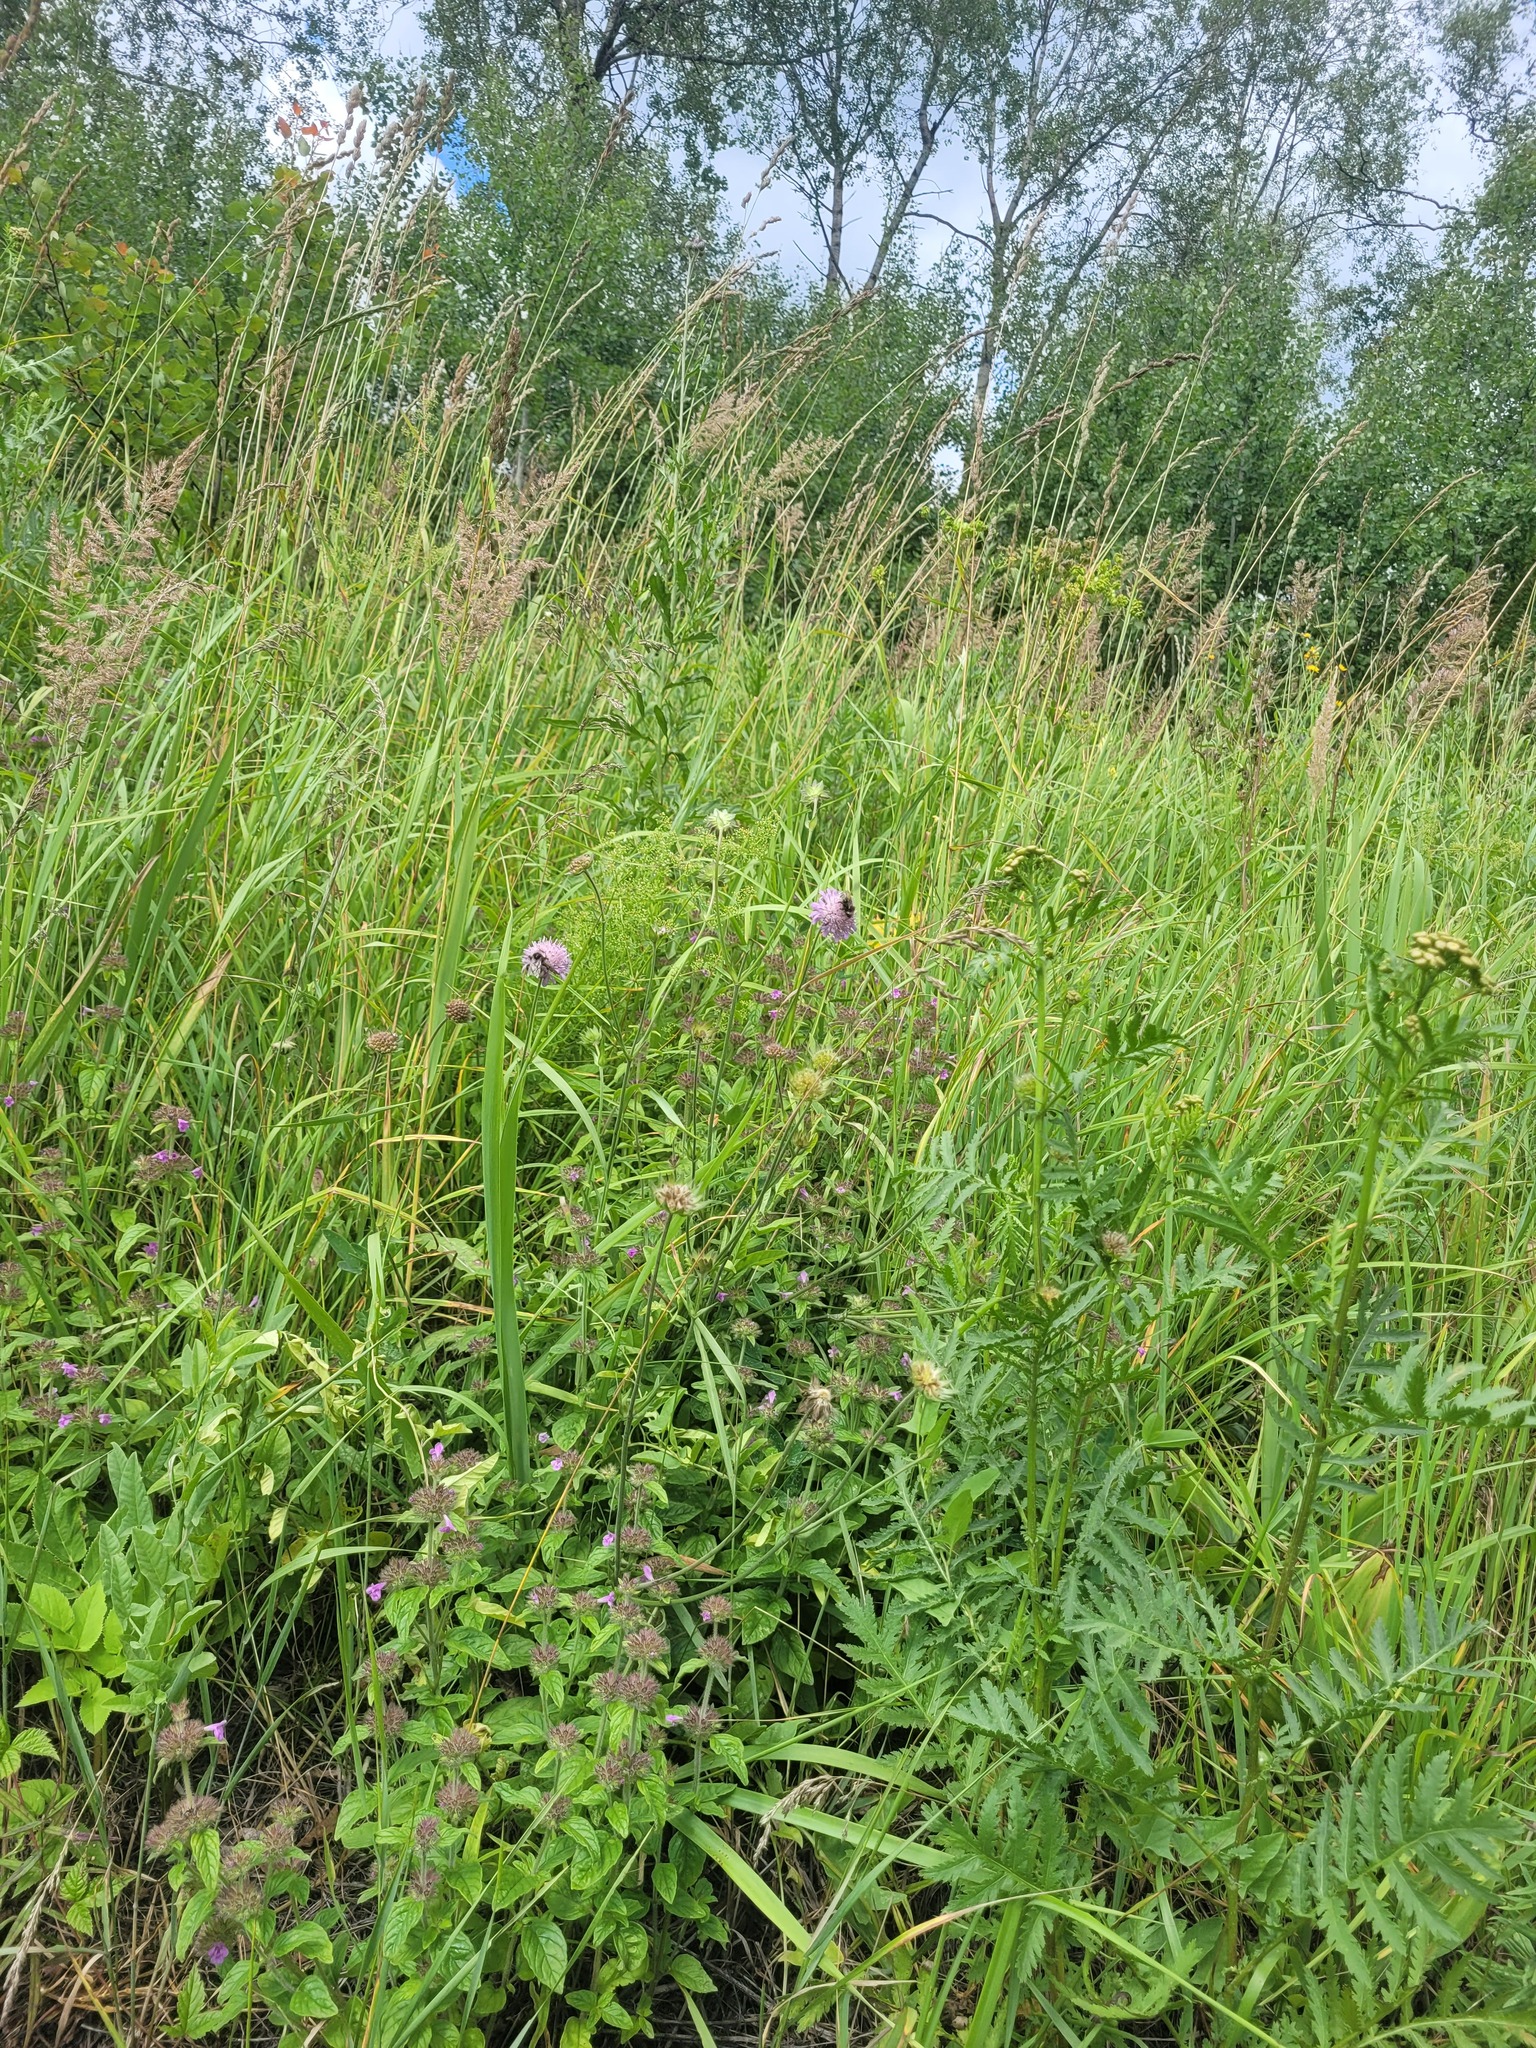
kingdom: Plantae
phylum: Tracheophyta
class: Magnoliopsida
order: Dipsacales
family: Caprifoliaceae
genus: Knautia
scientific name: Knautia arvensis
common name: Field scabiosa
